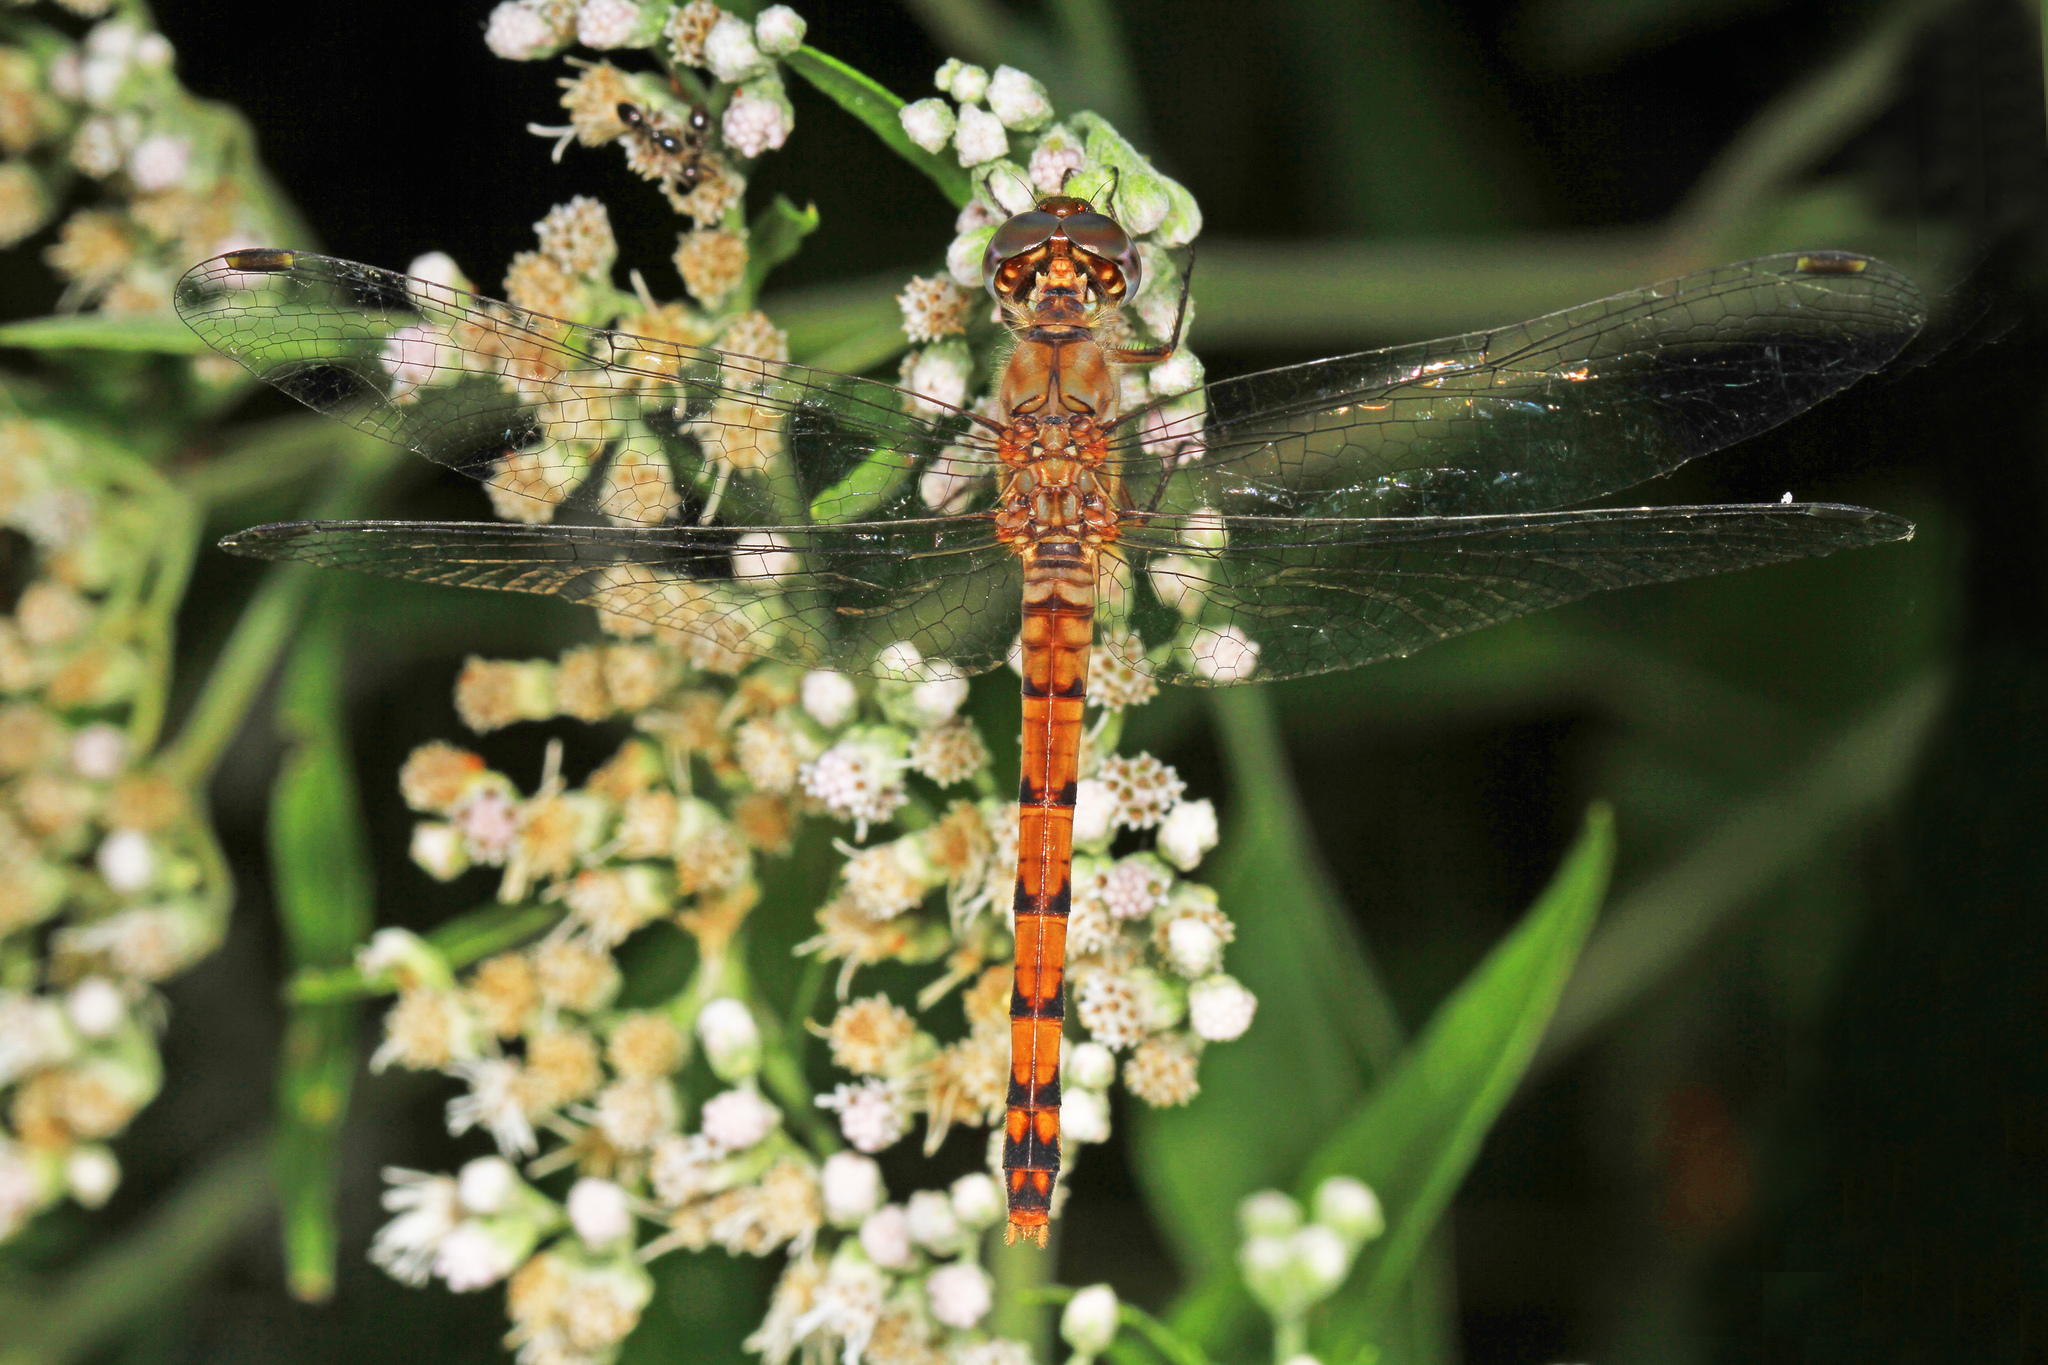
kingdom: Animalia
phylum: Arthropoda
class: Insecta
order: Odonata
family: Libellulidae
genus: Sympetrum
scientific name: Sympetrum ambiguum
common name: Blue-faced meadowhawk
